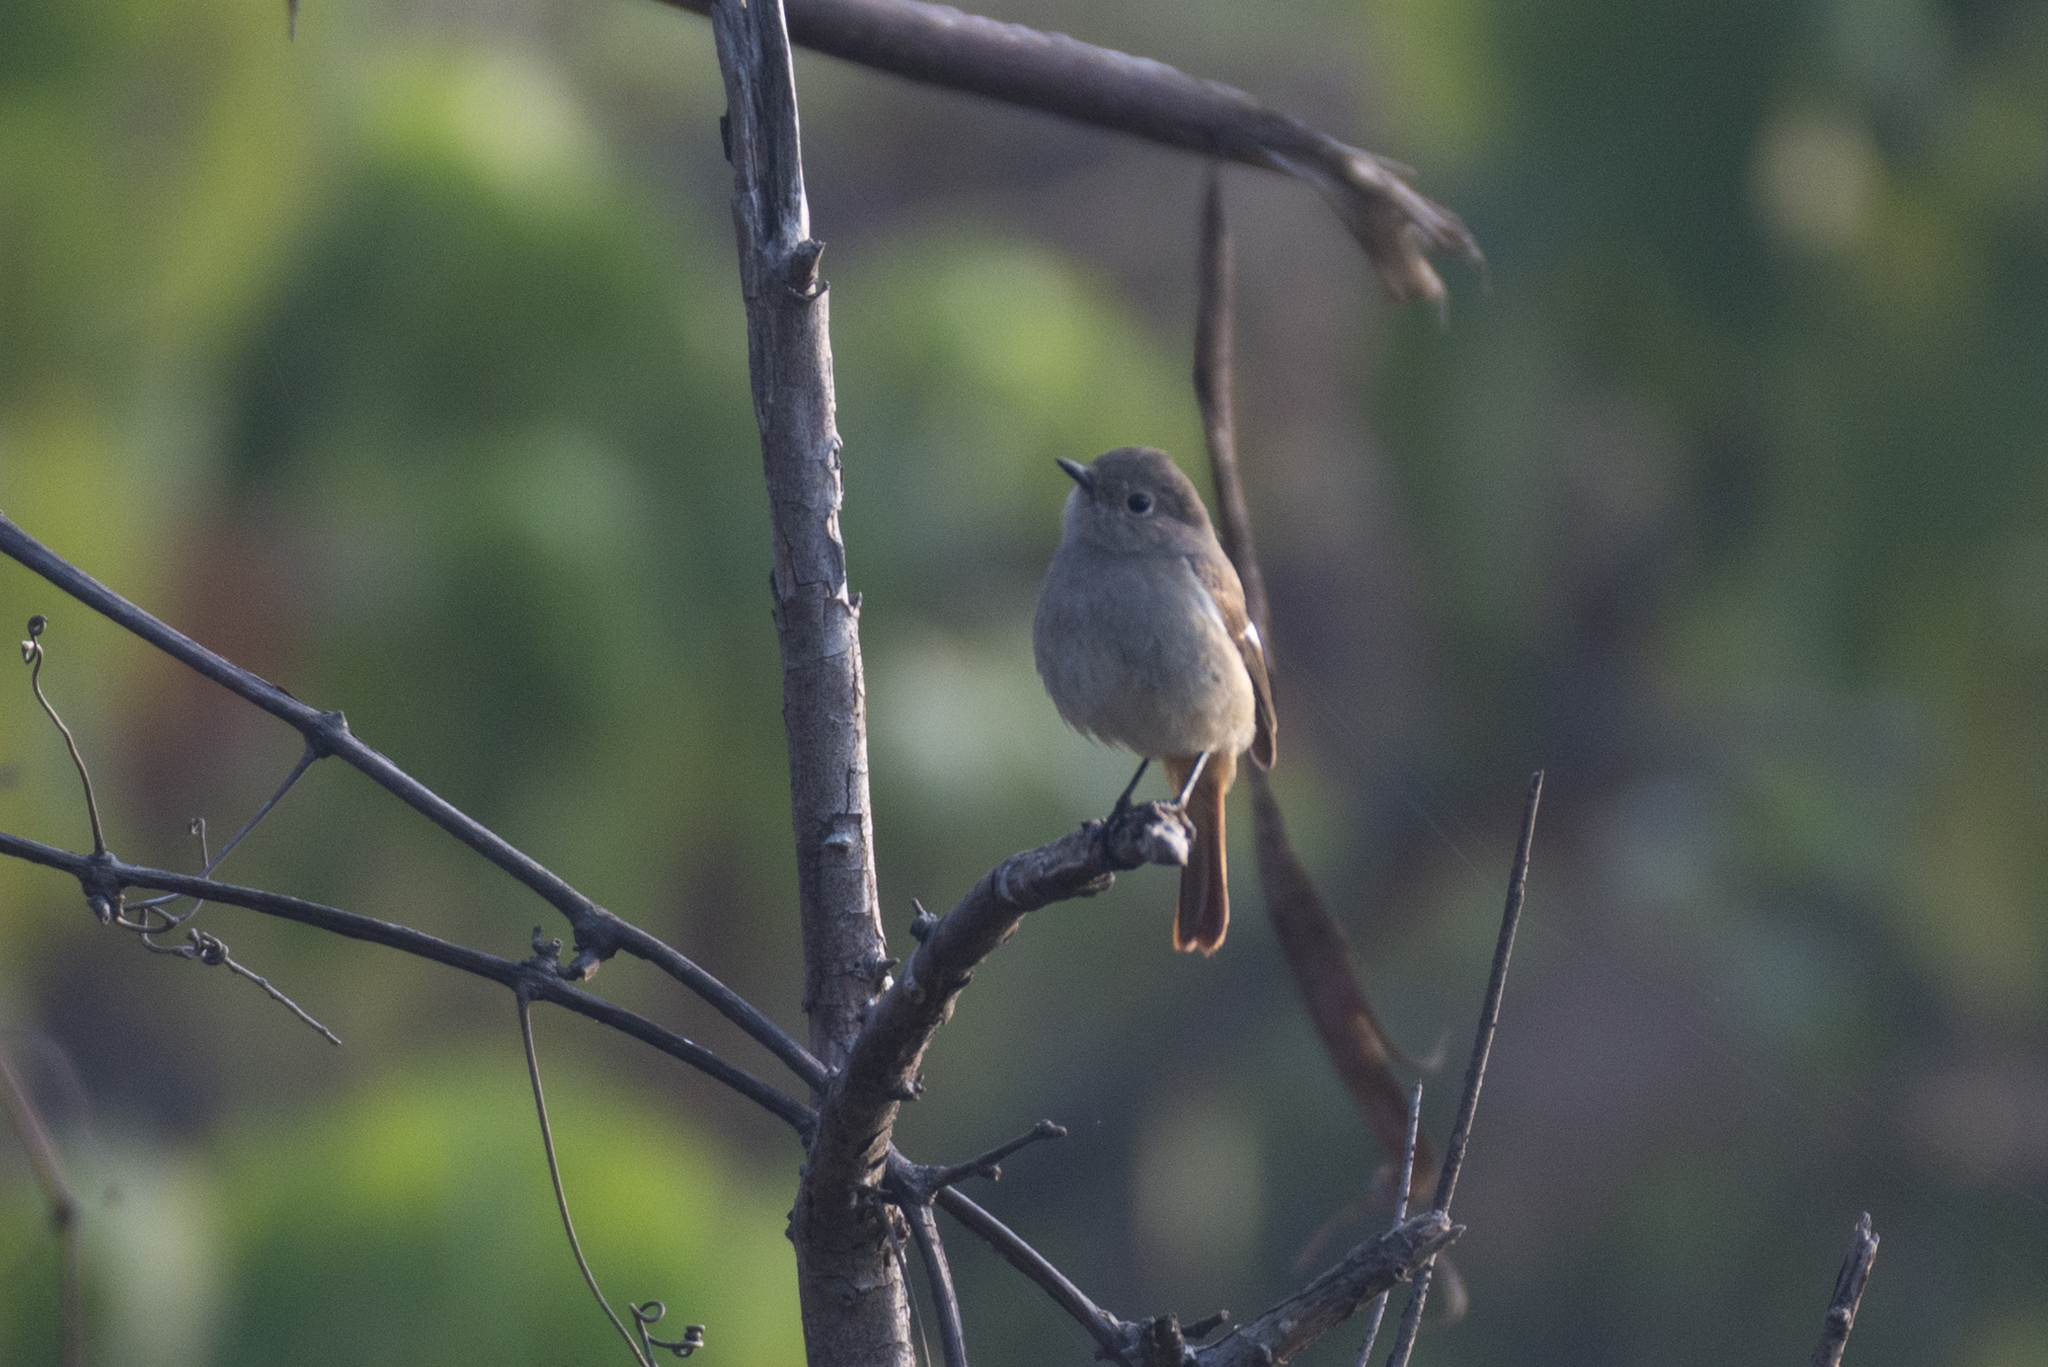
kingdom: Animalia
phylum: Chordata
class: Aves
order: Passeriformes
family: Muscicapidae
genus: Phoenicurus
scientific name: Phoenicurus auroreus
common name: Daurian redstart
